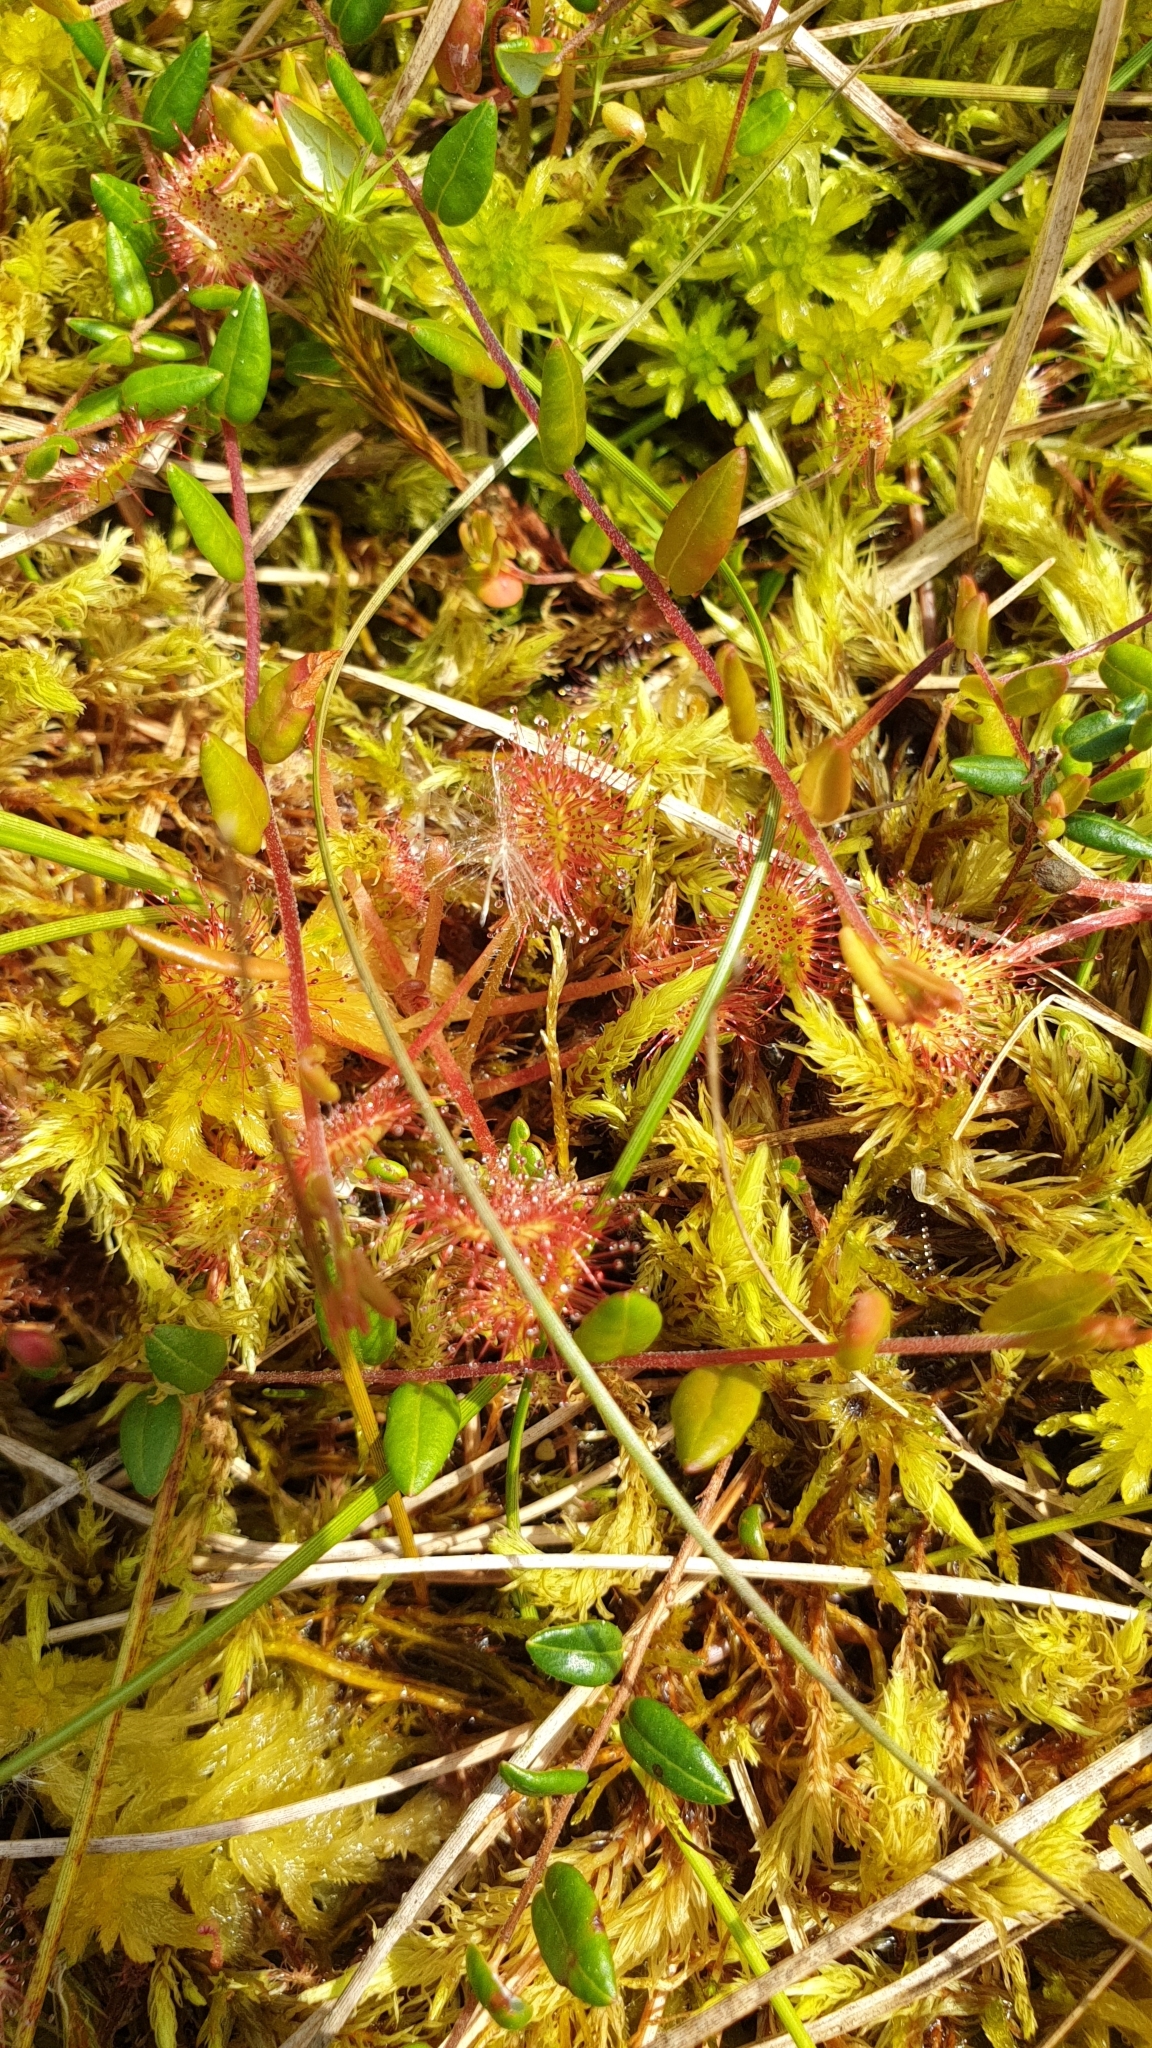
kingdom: Plantae
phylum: Tracheophyta
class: Magnoliopsida
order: Caryophyllales
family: Droseraceae
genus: Drosera
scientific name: Drosera rotundifolia
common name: Round-leaved sundew
